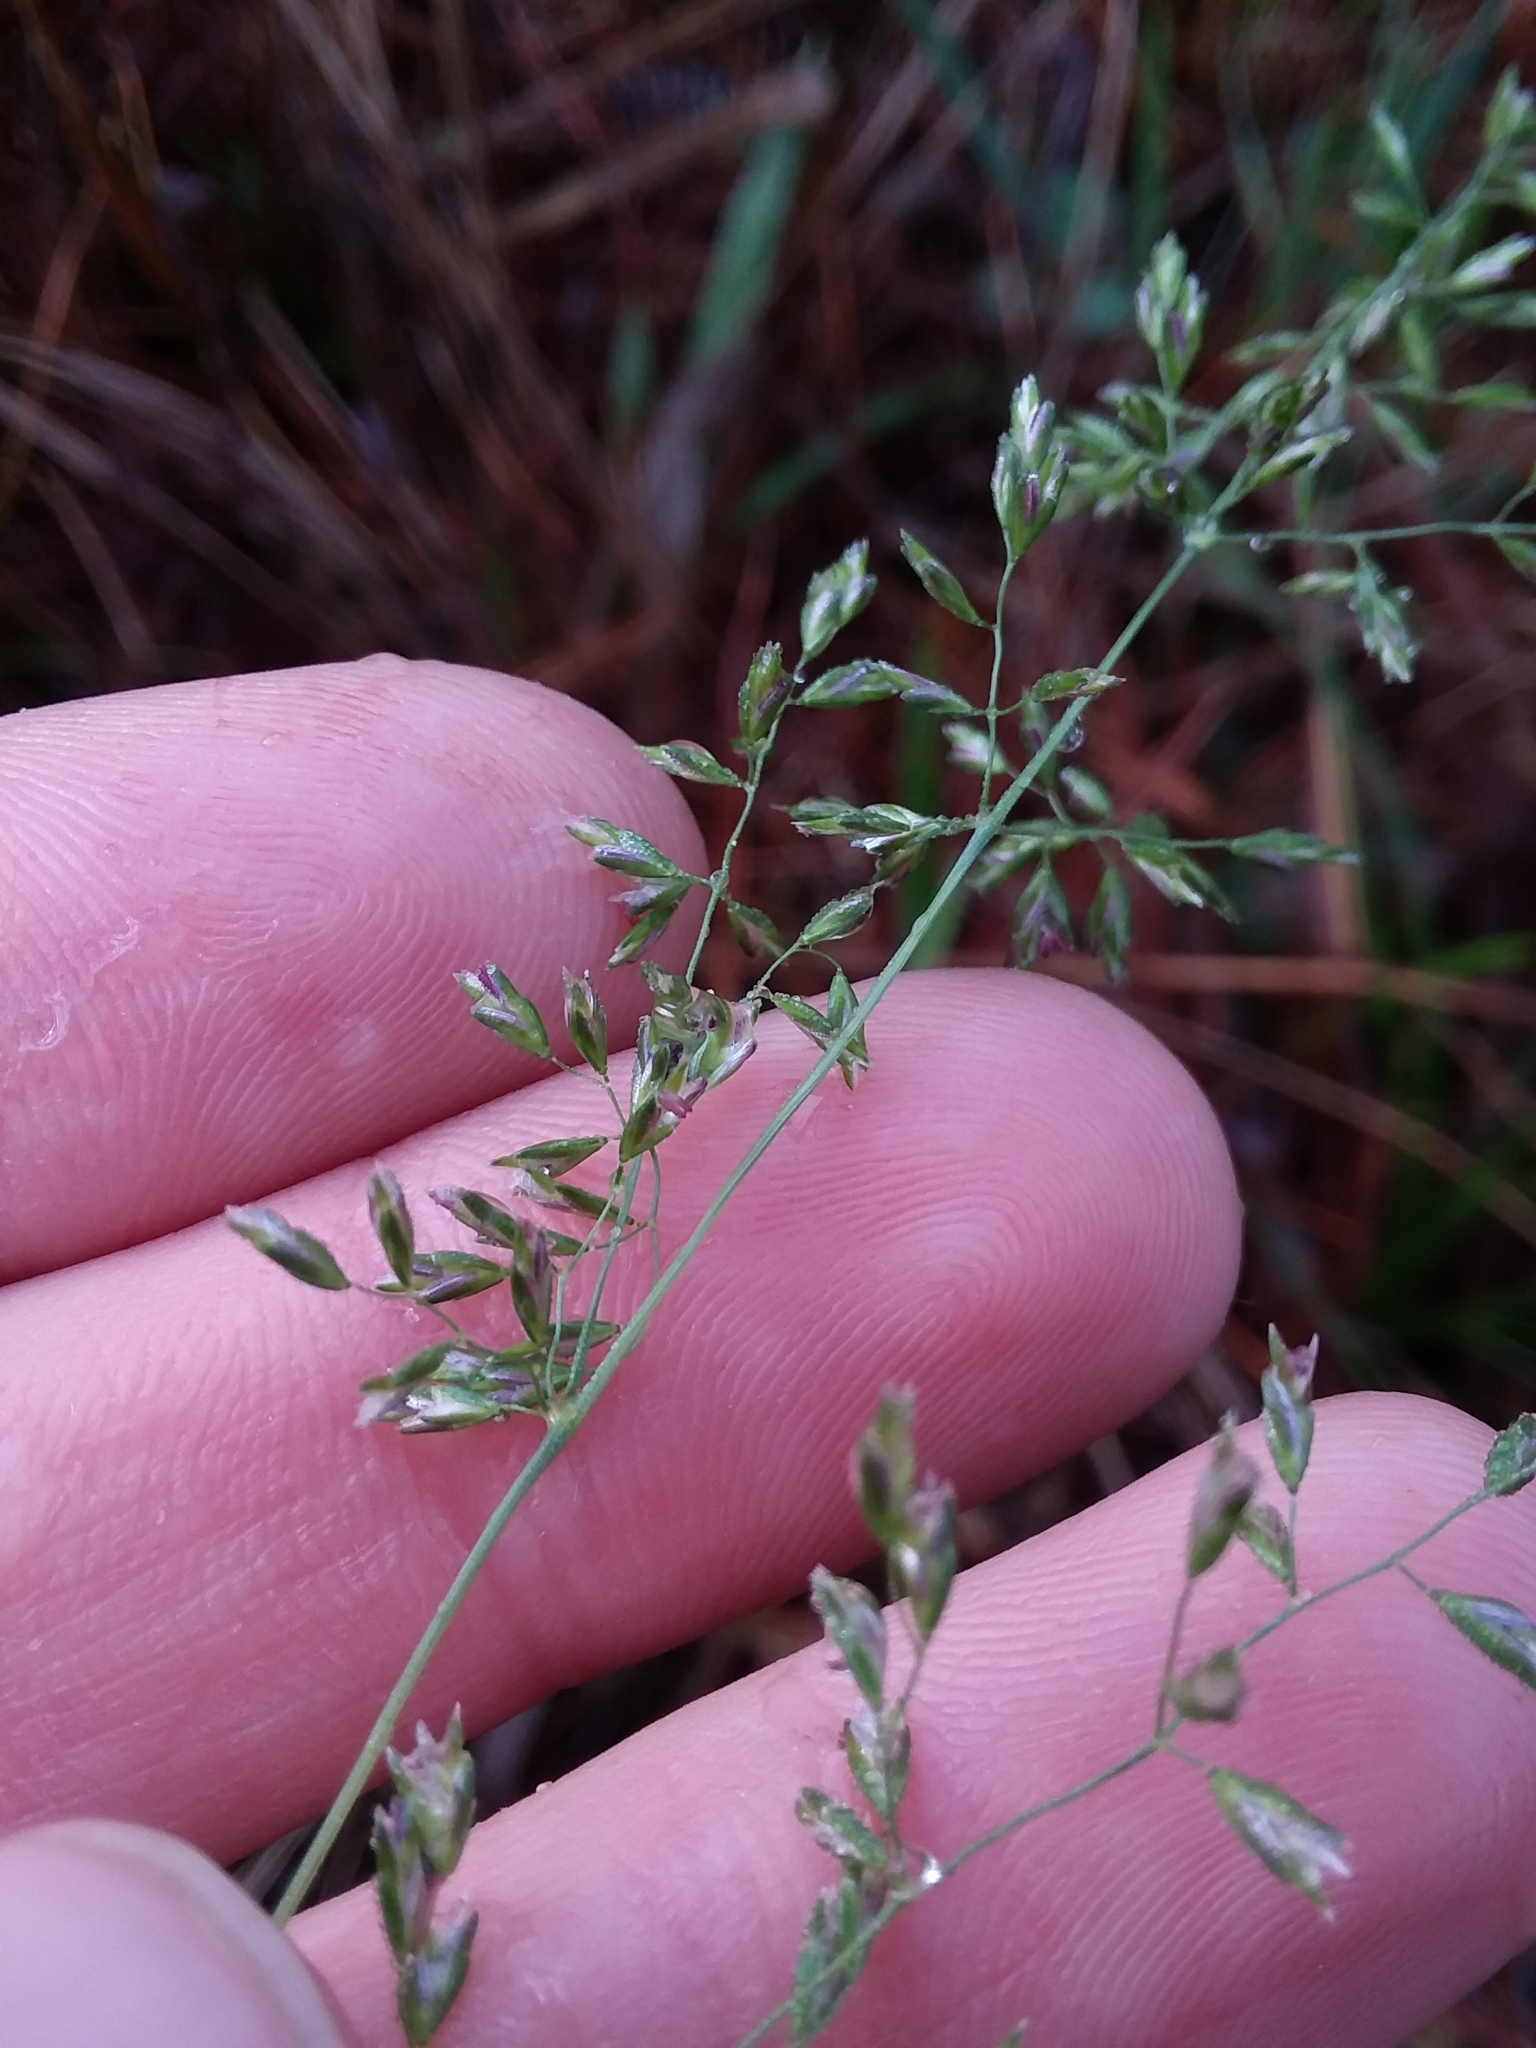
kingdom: Plantae
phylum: Tracheophyta
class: Liliopsida
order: Poales
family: Poaceae
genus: Sphenopholis
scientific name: Sphenopholis nitida
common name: Shiny wedgegrass
